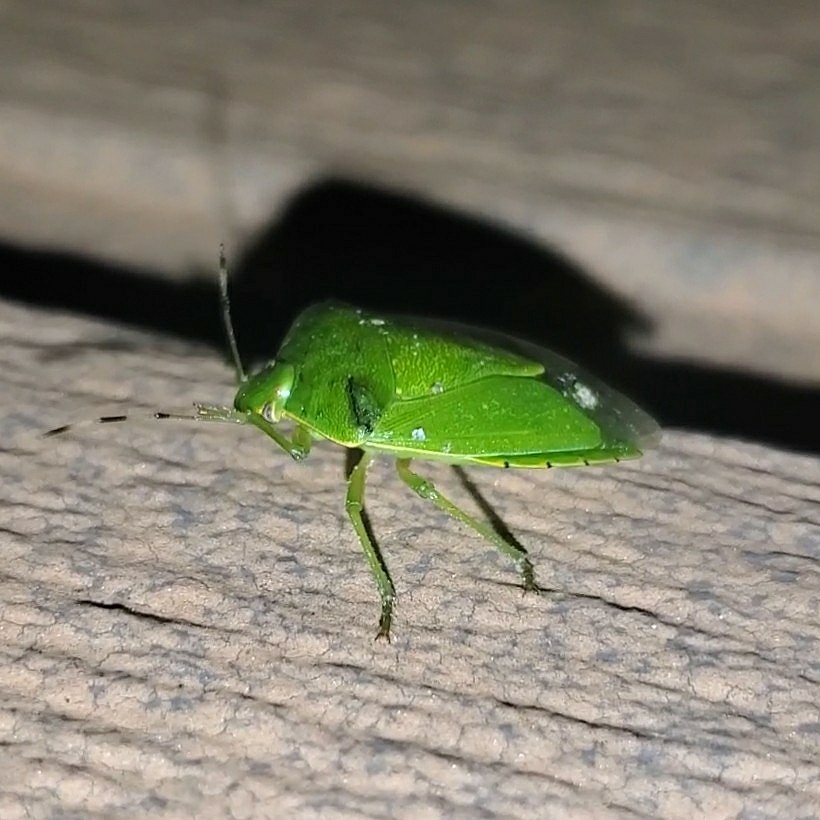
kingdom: Animalia
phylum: Arthropoda
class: Insecta
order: Hemiptera
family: Pentatomidae
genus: Chinavia
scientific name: Chinavia hilaris
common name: Green stink bug
